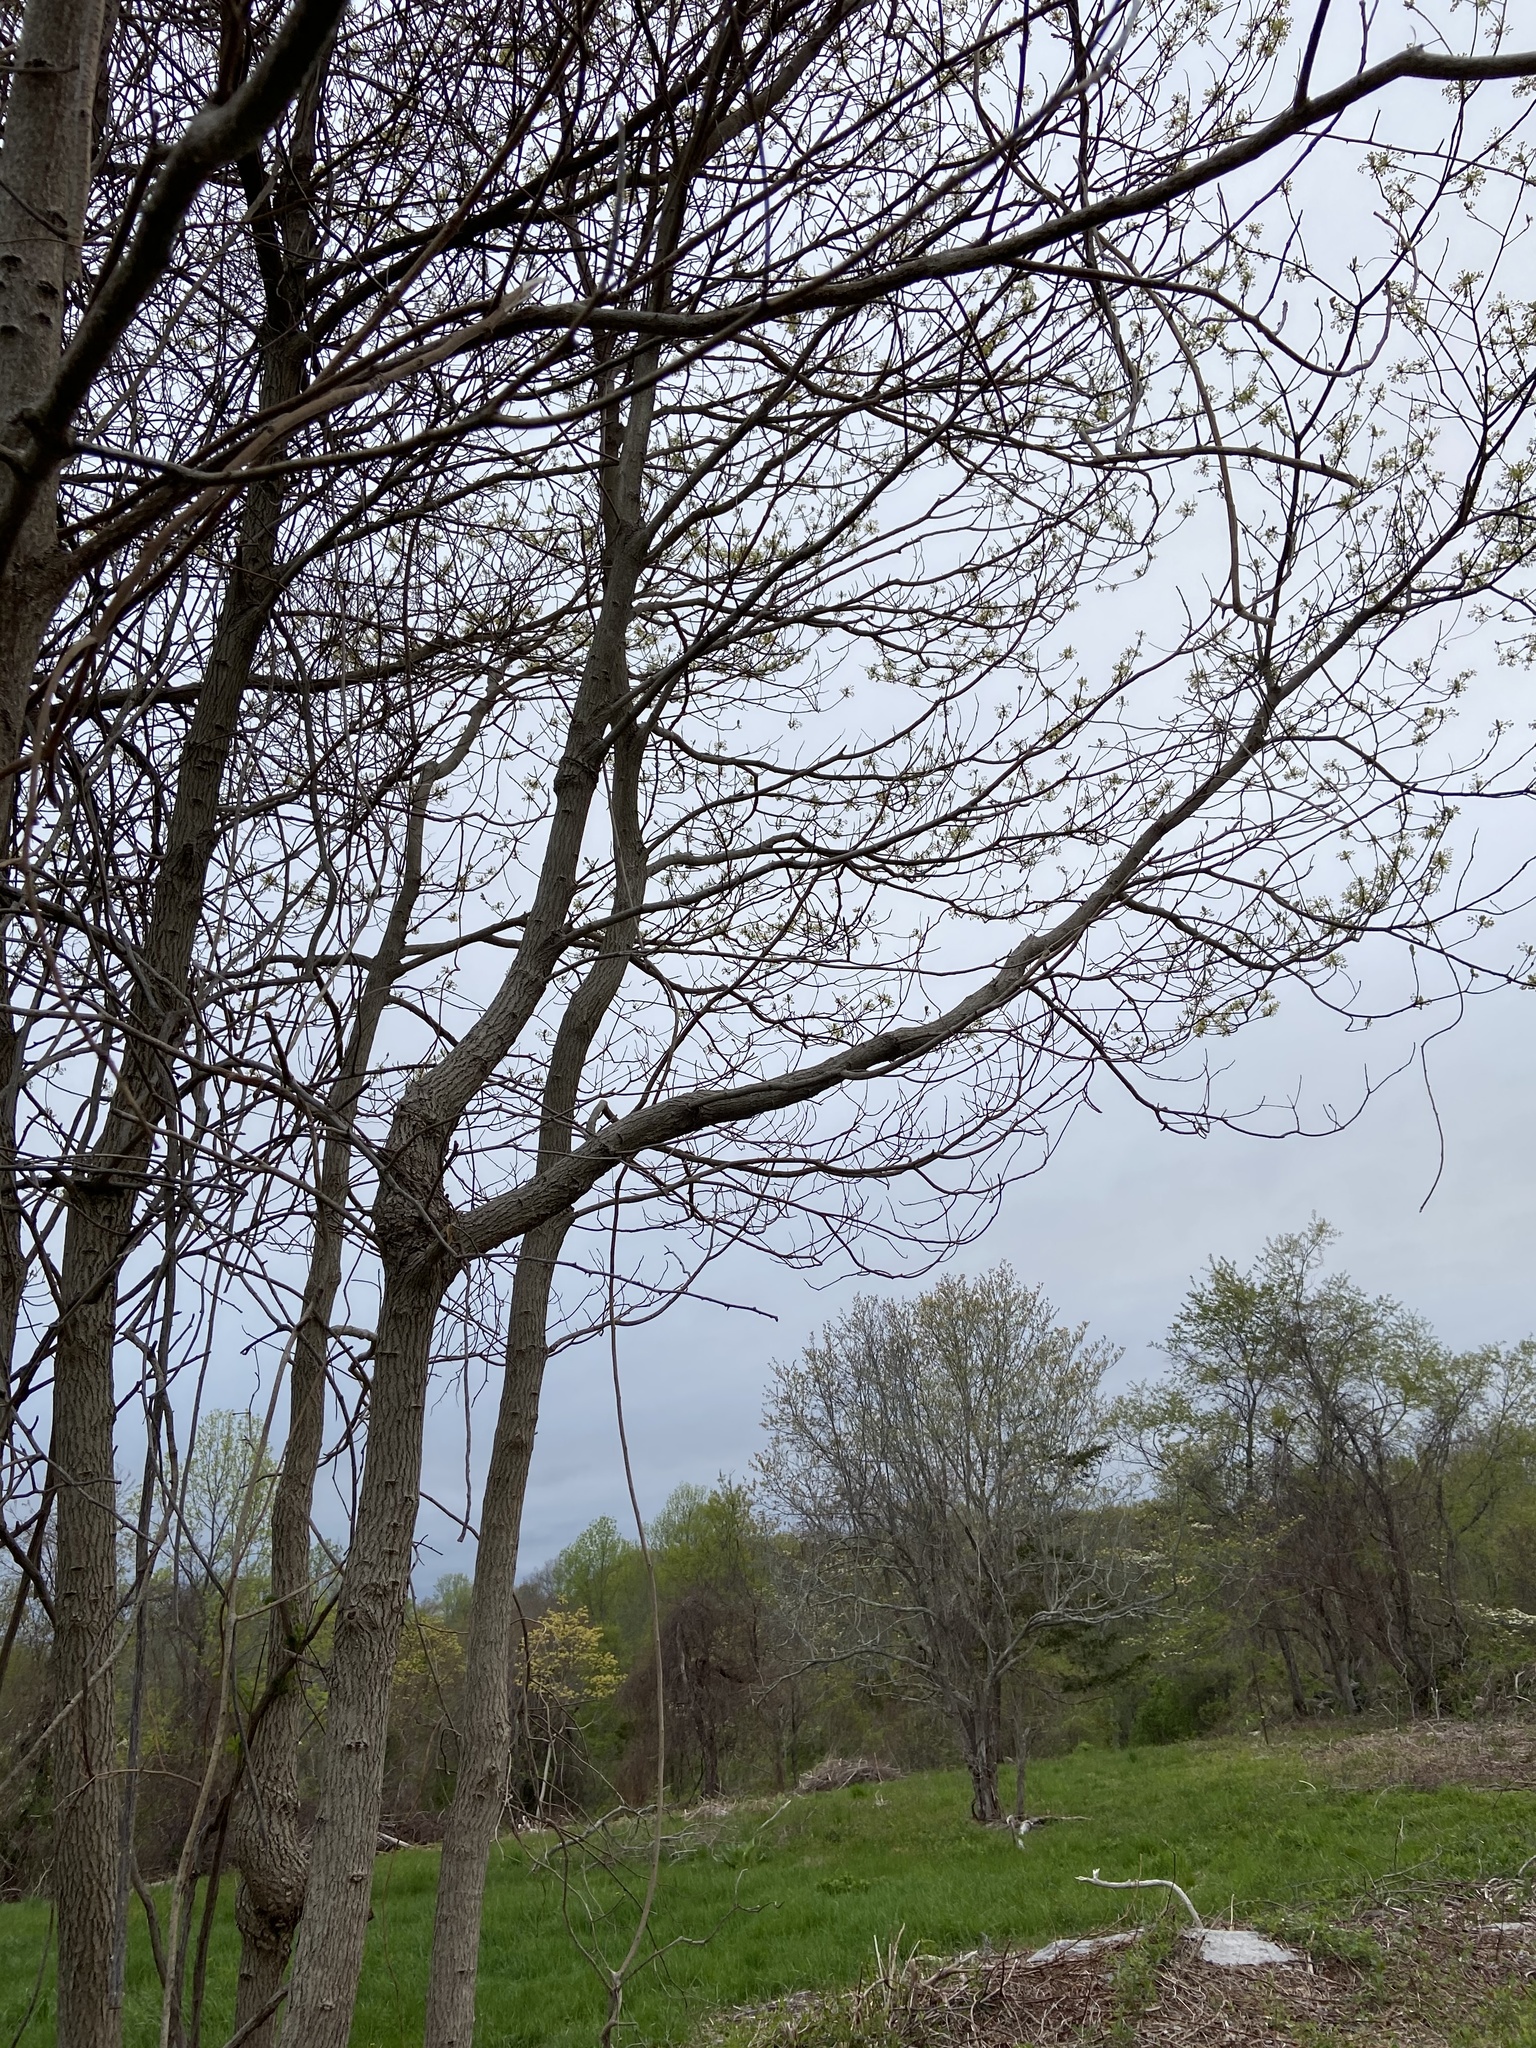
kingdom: Plantae
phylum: Tracheophyta
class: Magnoliopsida
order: Laurales
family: Lauraceae
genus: Sassafras
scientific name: Sassafras albidum
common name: Sassafras
